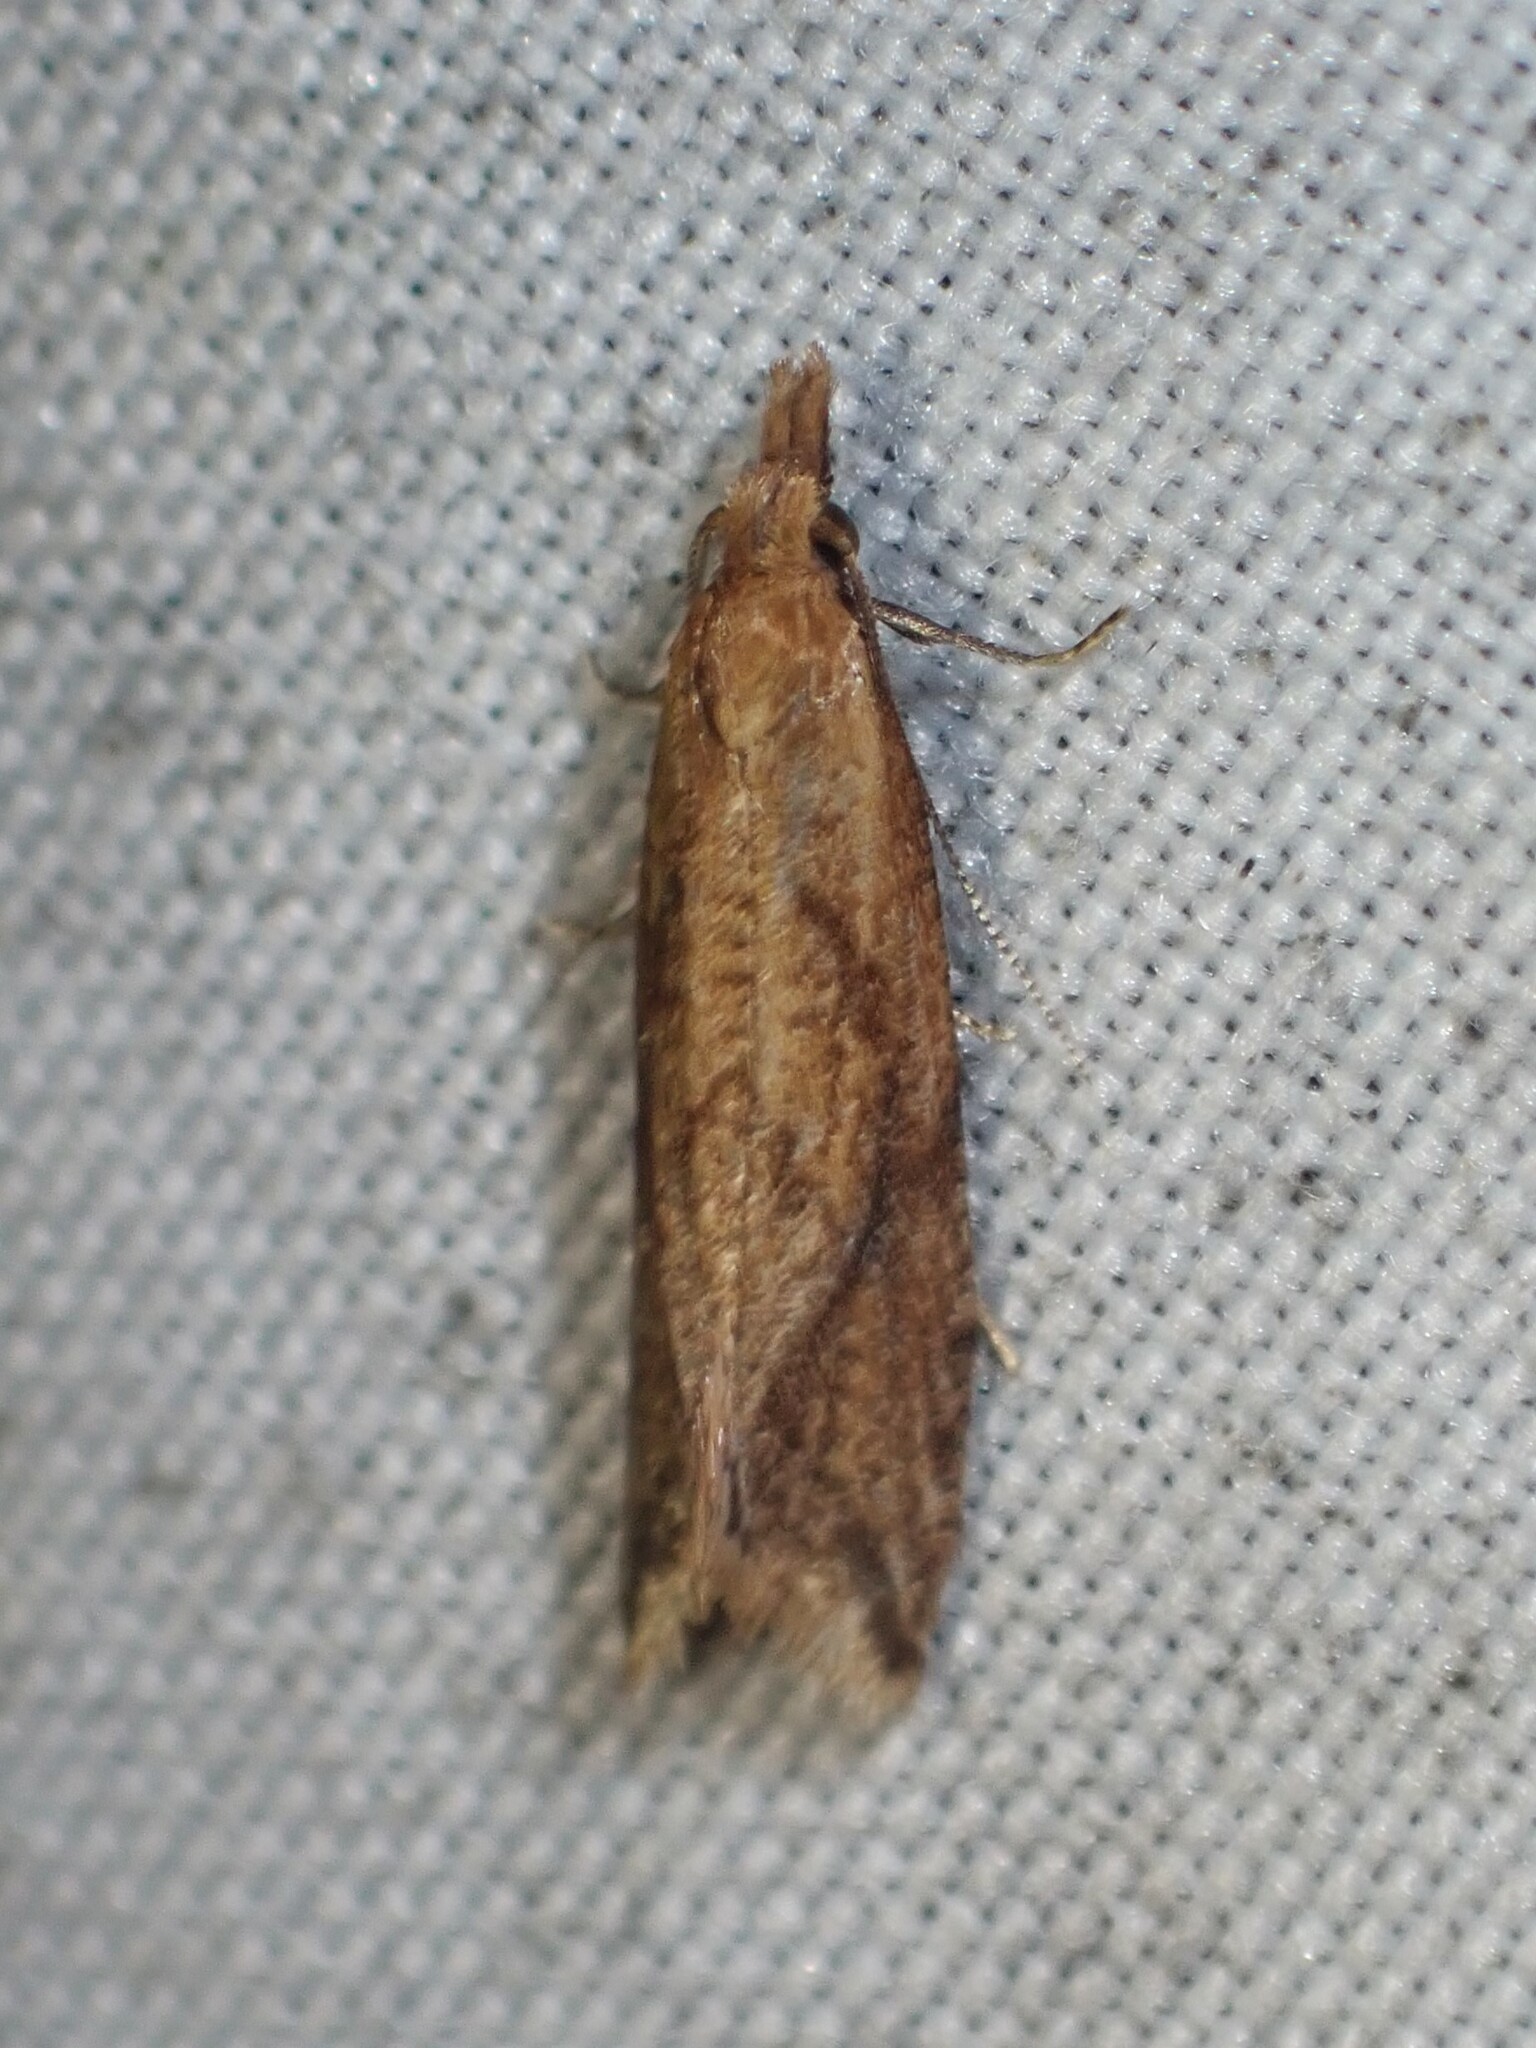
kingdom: Animalia
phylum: Arthropoda
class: Insecta
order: Lepidoptera
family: Tortricidae
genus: Aethes
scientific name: Aethes biscana
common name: Reddish aethes
